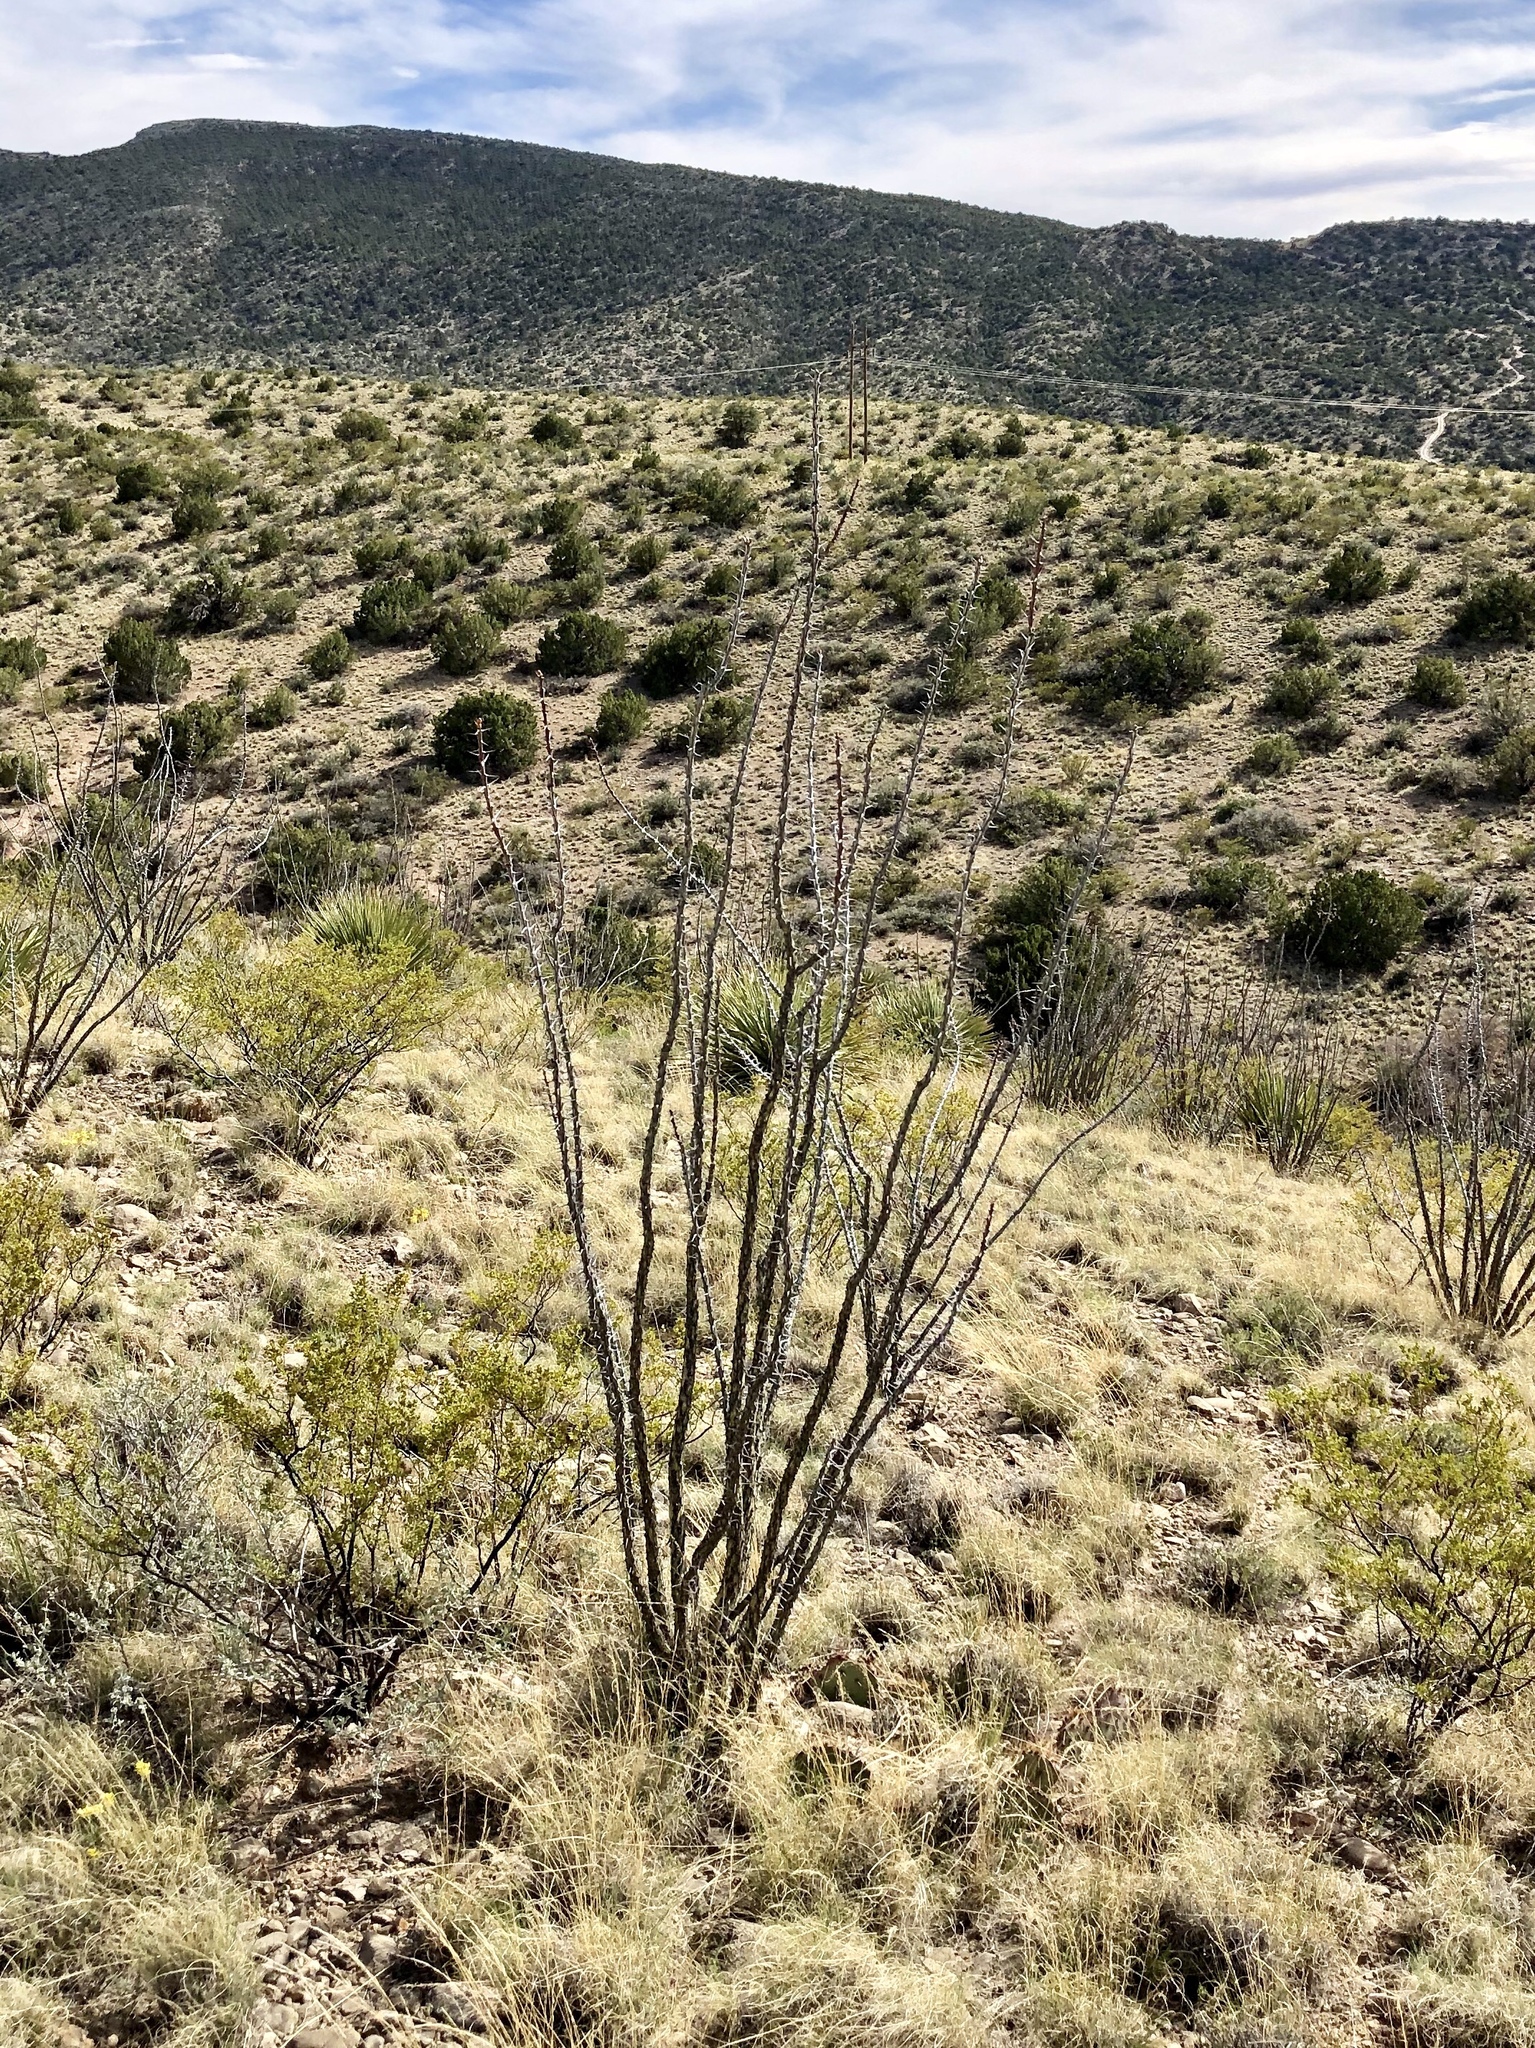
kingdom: Plantae
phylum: Tracheophyta
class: Magnoliopsida
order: Ericales
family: Fouquieriaceae
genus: Fouquieria
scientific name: Fouquieria splendens
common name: Vine-cactus
